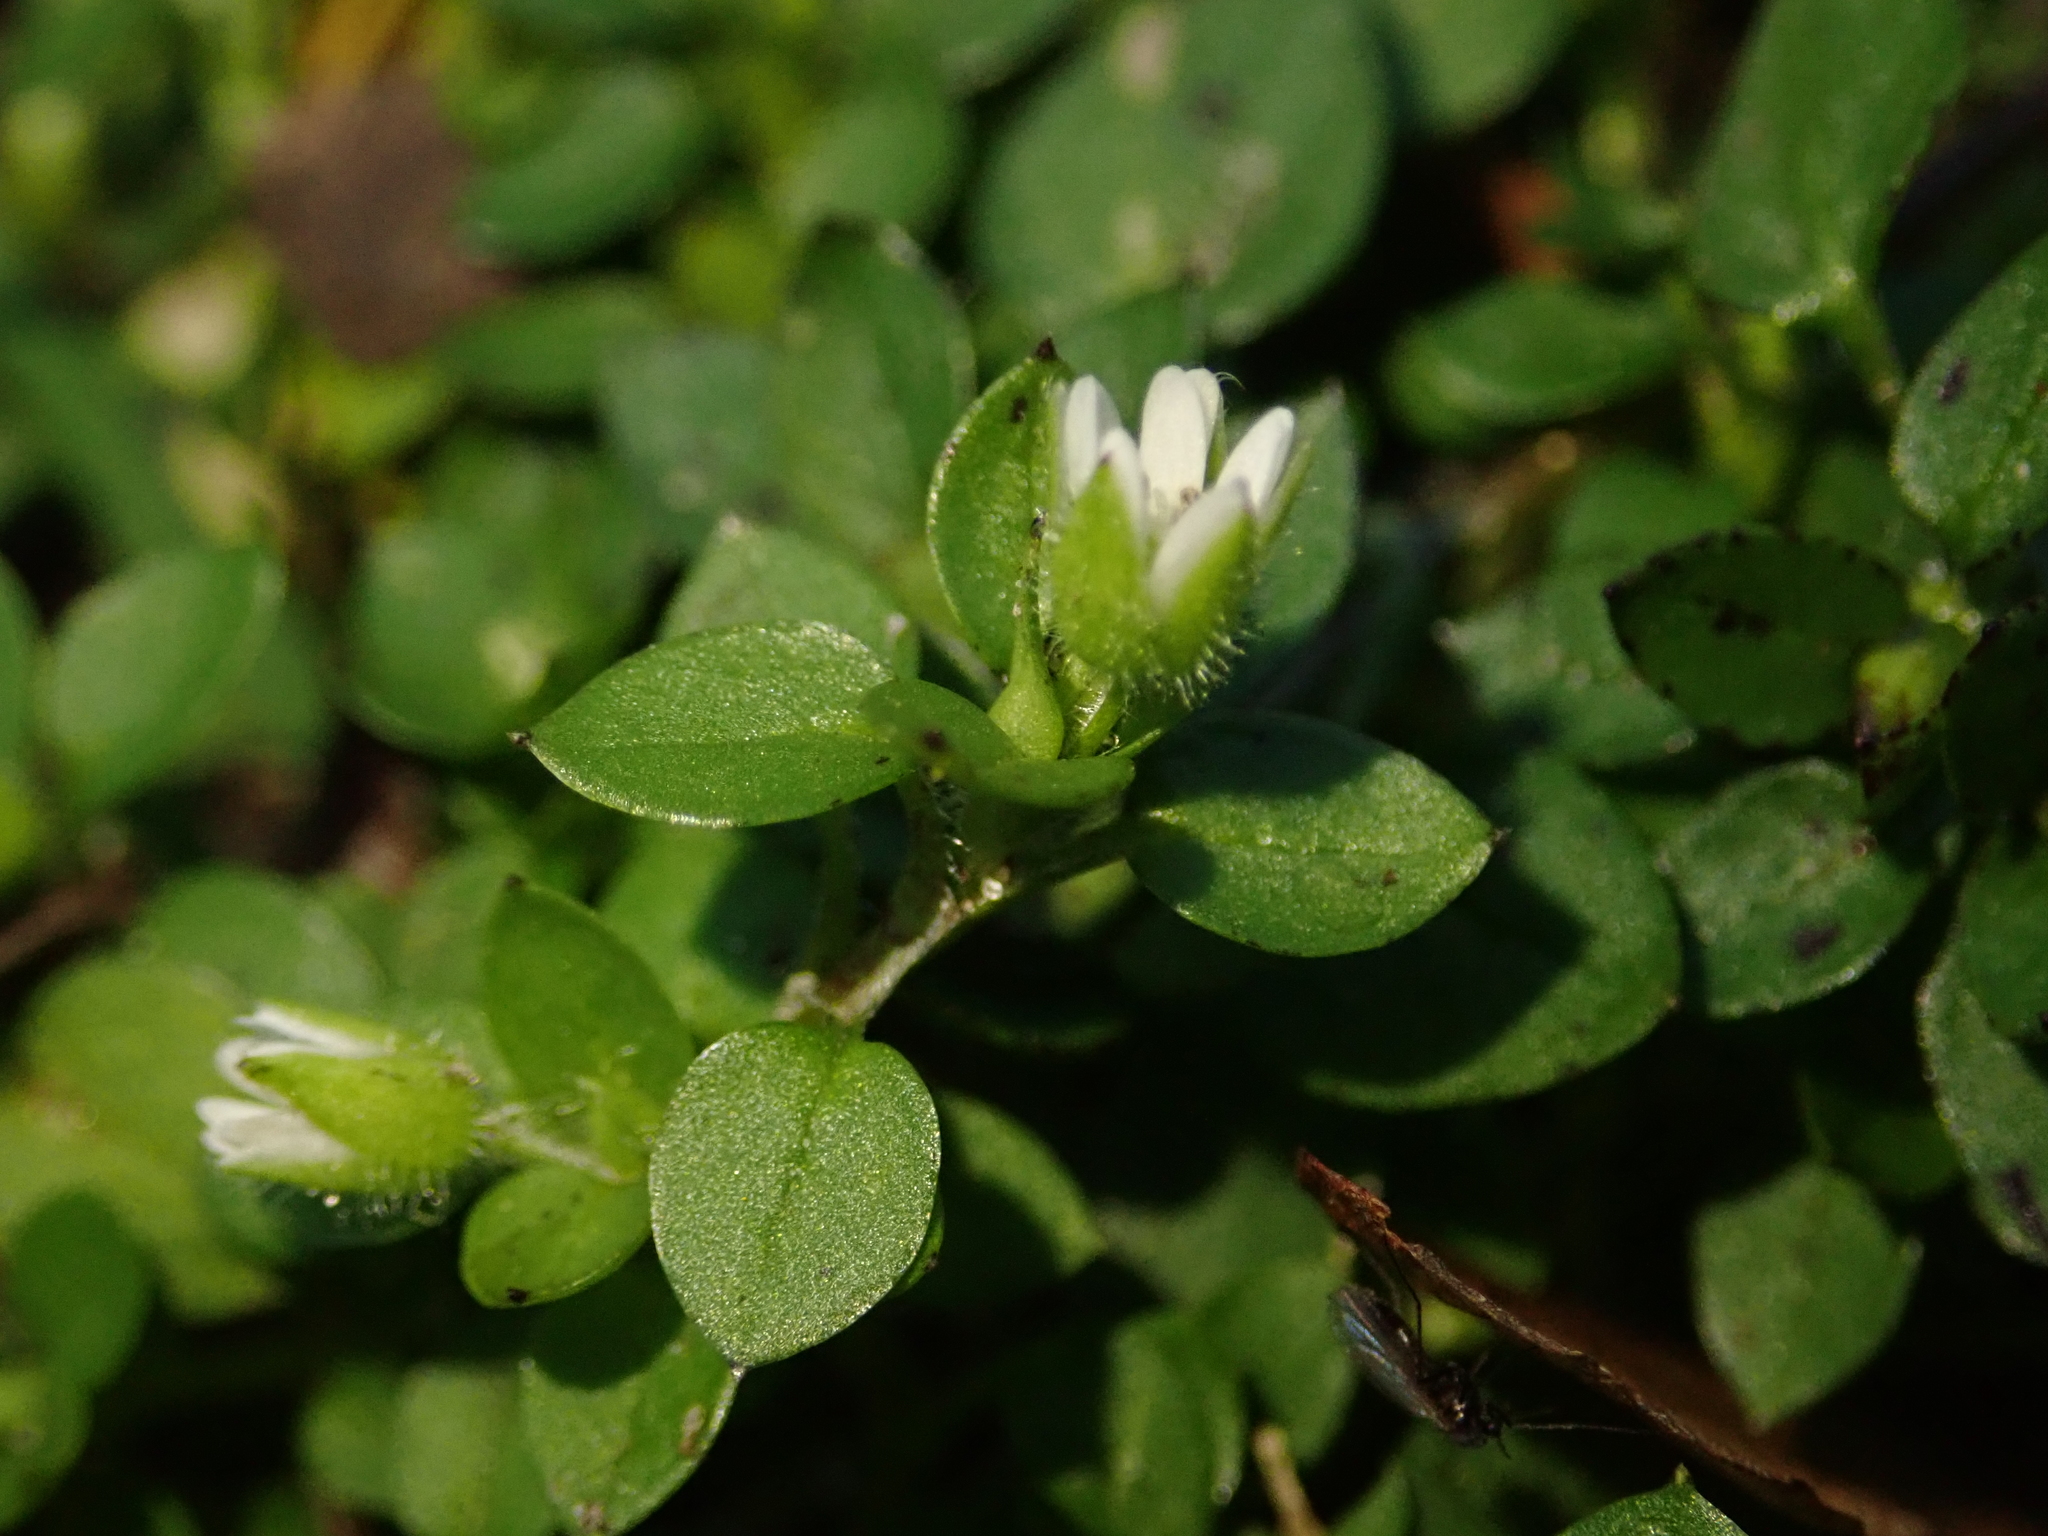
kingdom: Plantae
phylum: Tracheophyta
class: Magnoliopsida
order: Caryophyllales
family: Caryophyllaceae
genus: Stellaria
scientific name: Stellaria media
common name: Common chickweed
